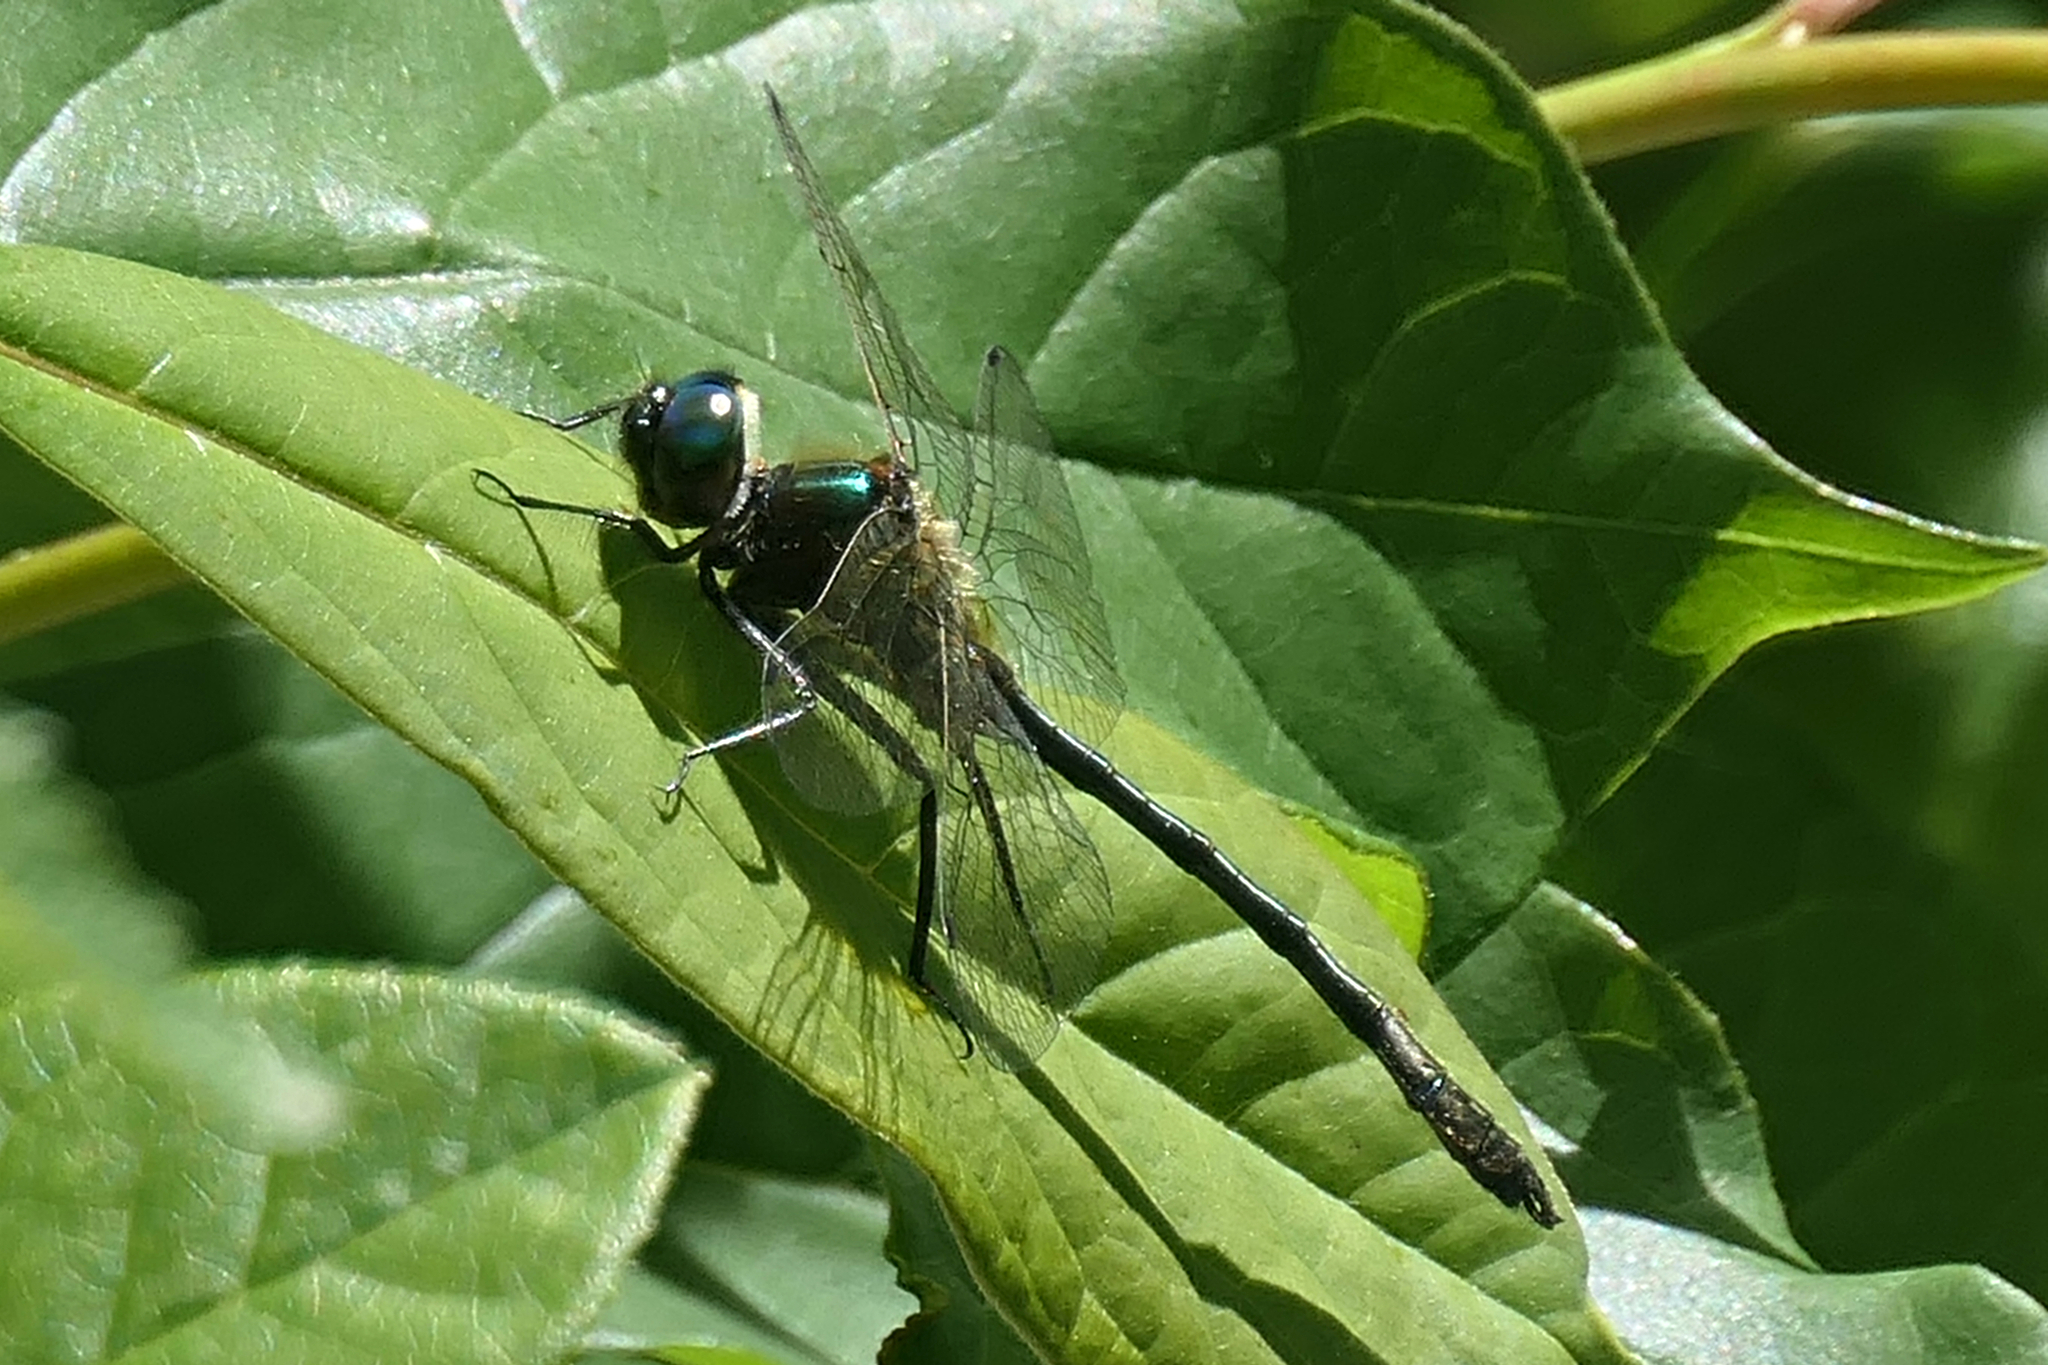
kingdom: Animalia
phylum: Arthropoda
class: Insecta
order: Odonata
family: Corduliidae
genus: Dorocordulia
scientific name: Dorocordulia libera
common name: Racket-tailed emerald
